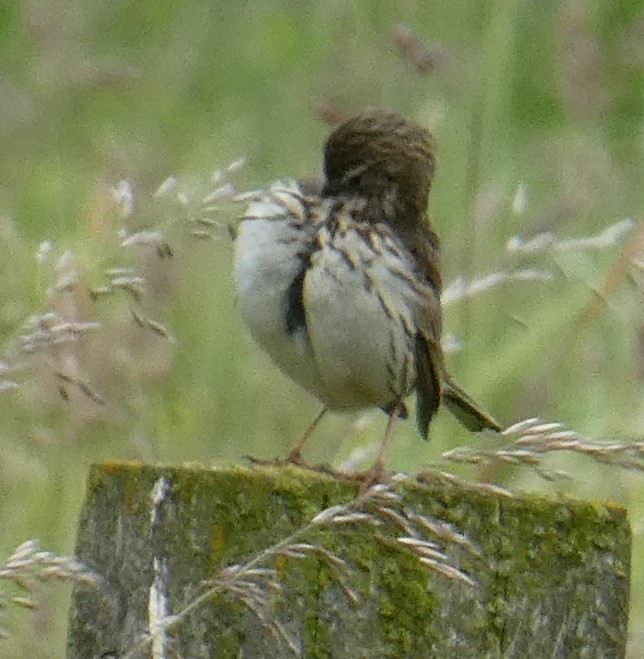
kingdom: Animalia
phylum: Chordata
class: Aves
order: Passeriformes
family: Motacillidae
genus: Anthus
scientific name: Anthus pratensis
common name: Meadow pipit
